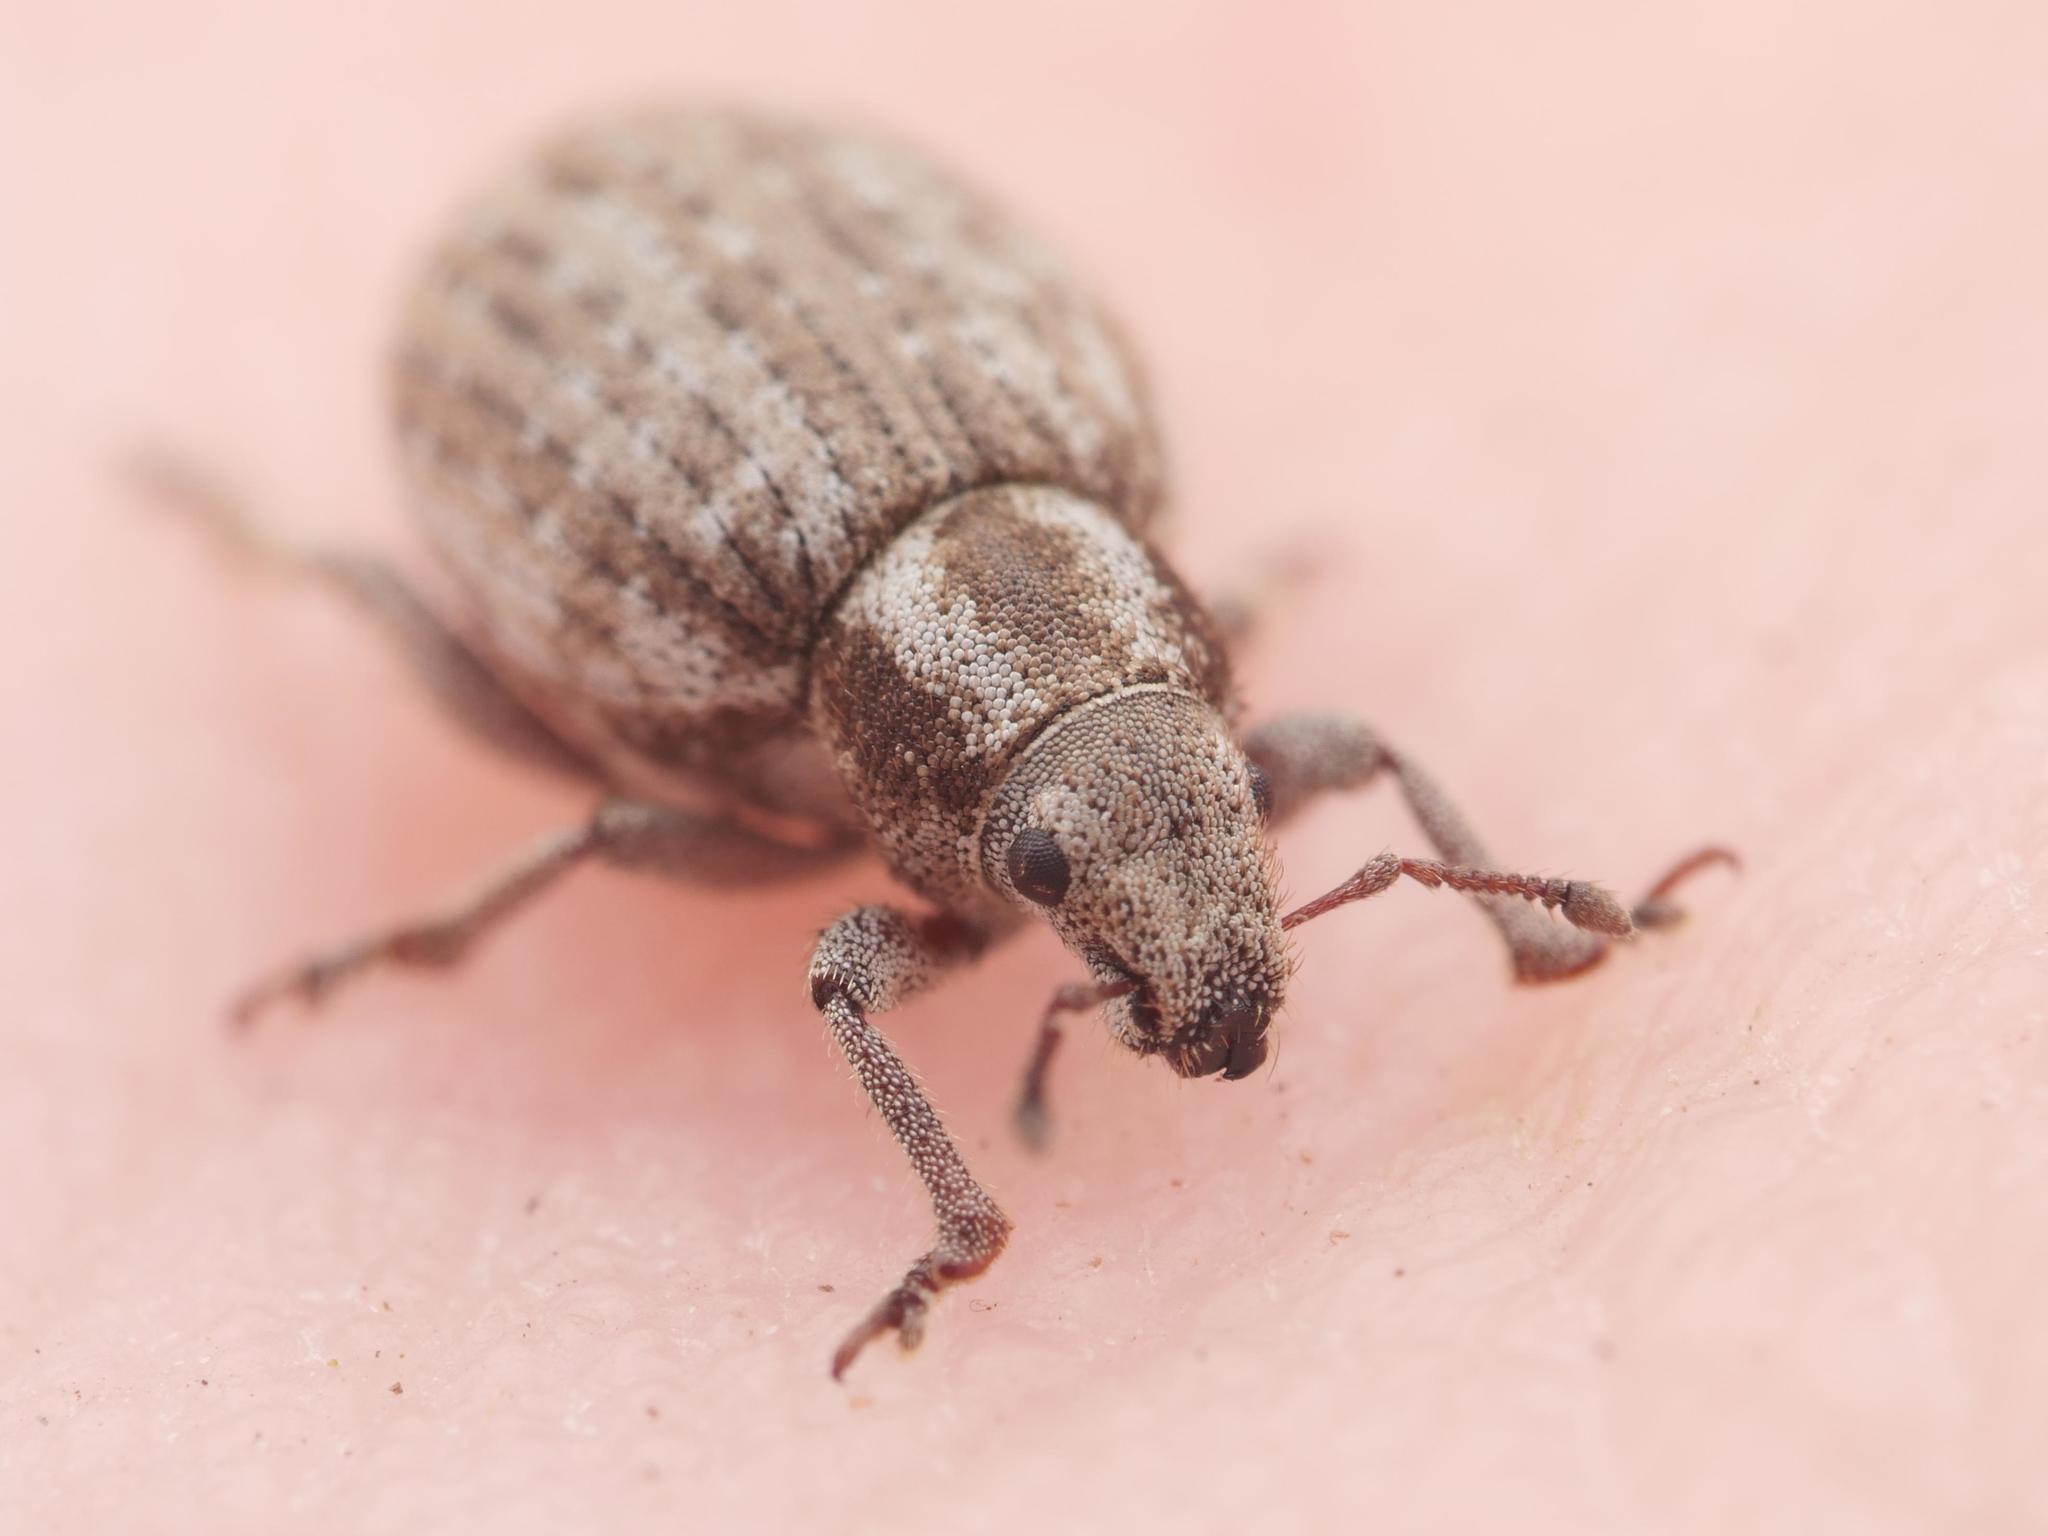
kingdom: Animalia
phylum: Arthropoda
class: Insecta
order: Coleoptera
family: Curculionidae
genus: Philopedon
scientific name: Philopedon plagiatum
